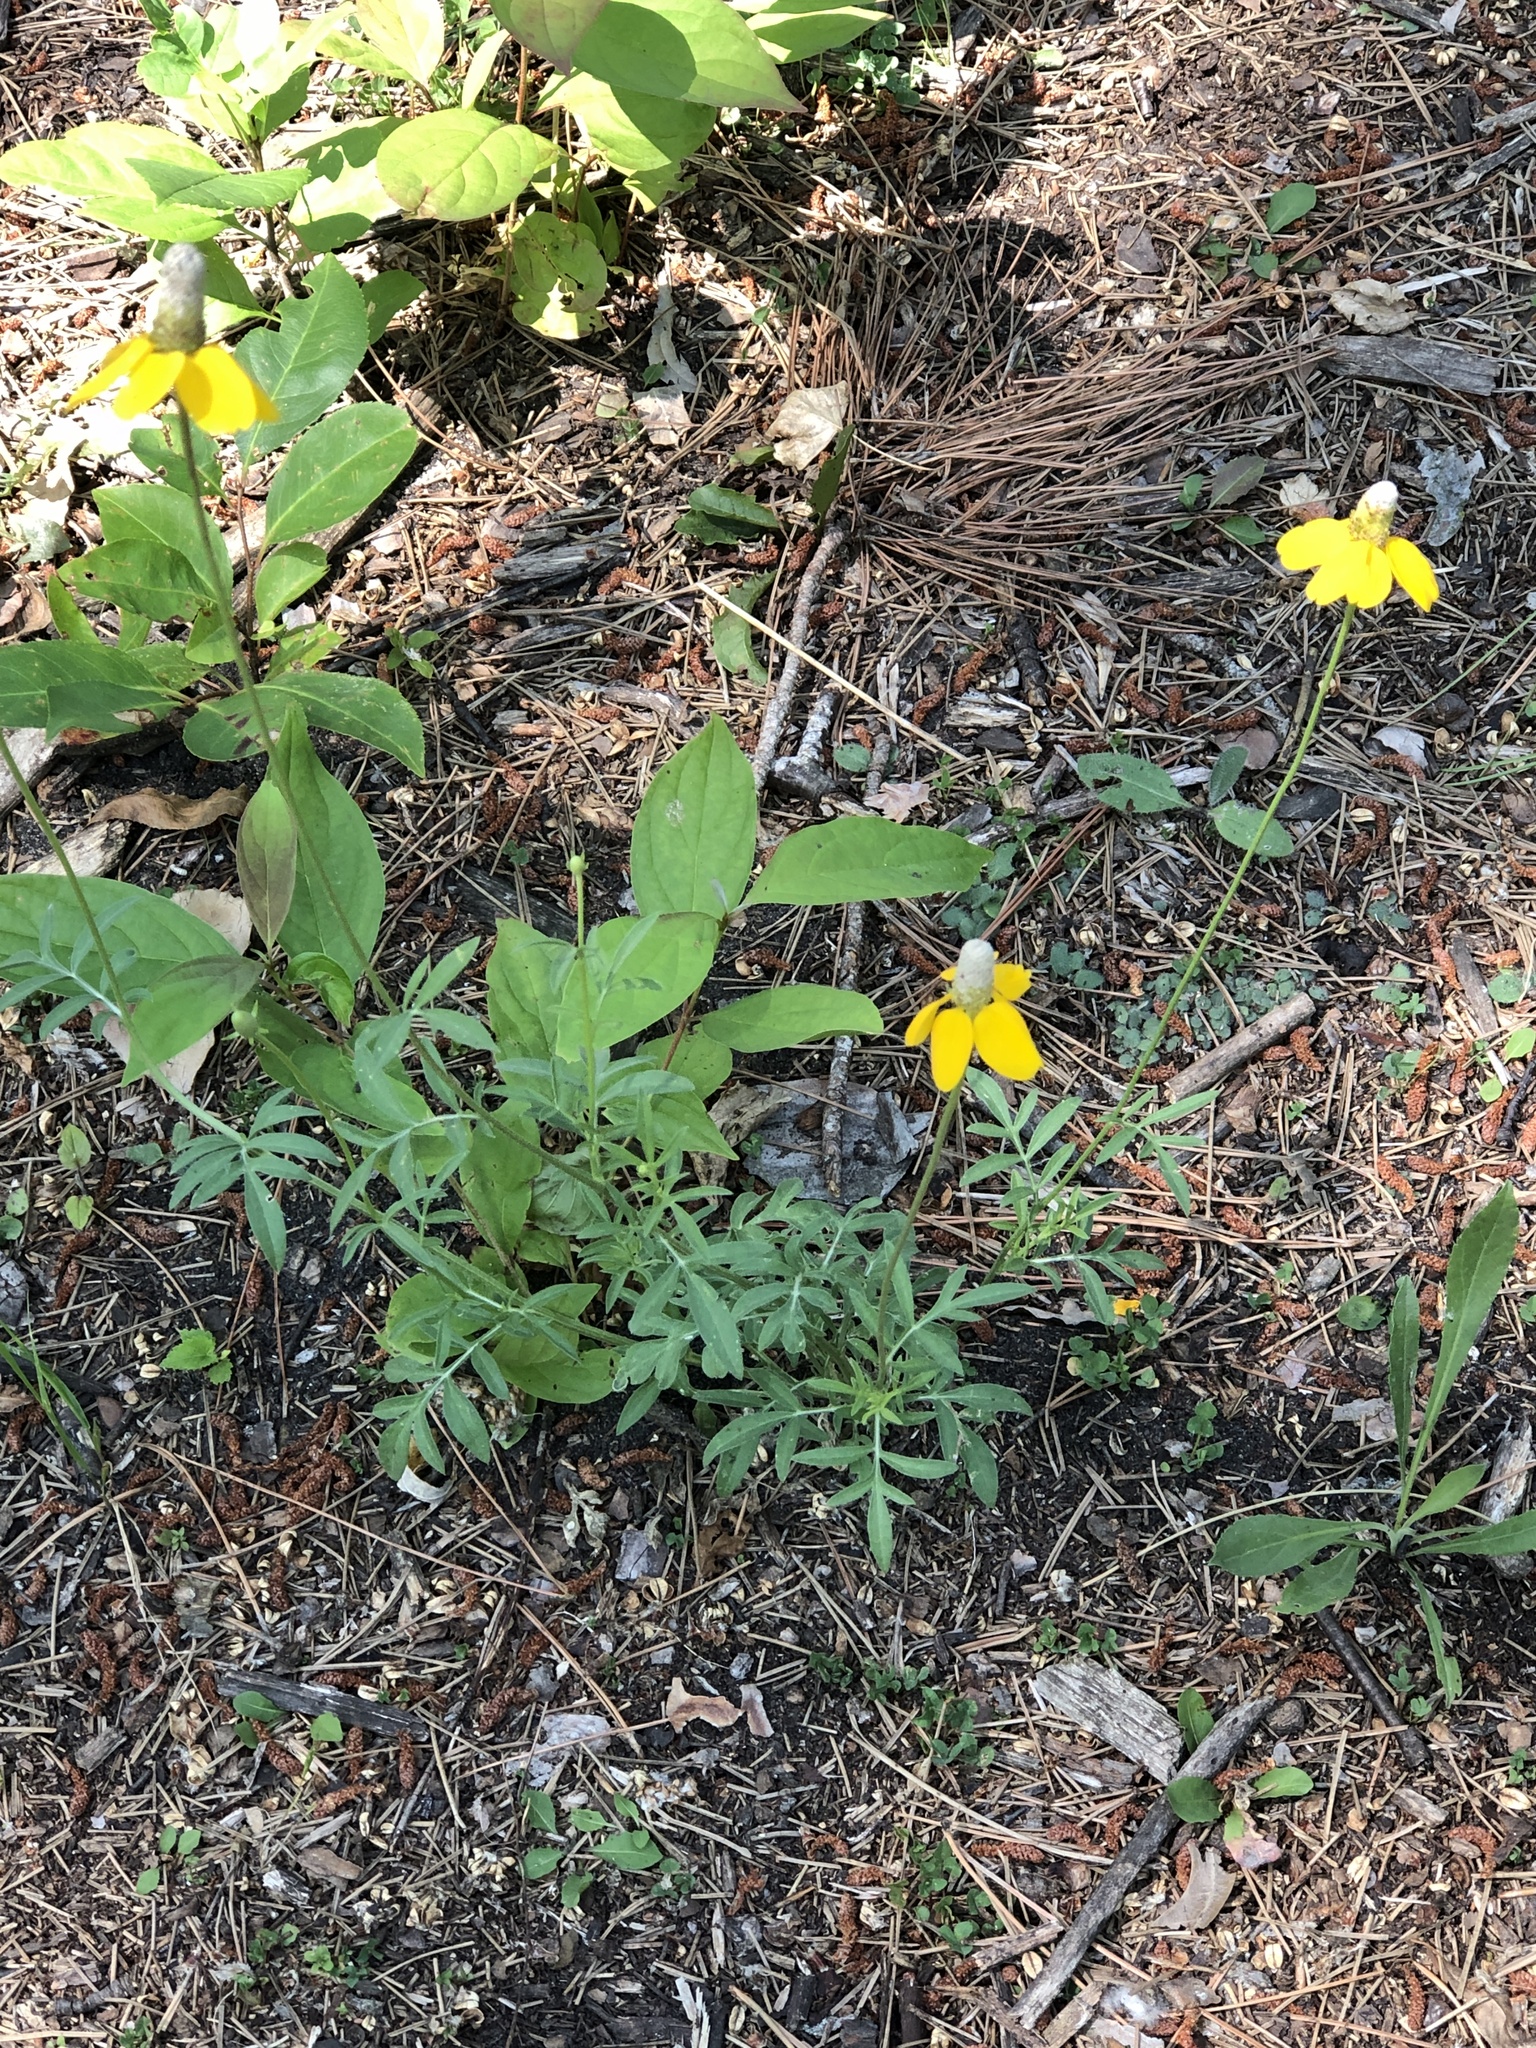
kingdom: Plantae
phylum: Tracheophyta
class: Magnoliopsida
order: Asterales
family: Asteraceae
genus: Ratibida
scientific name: Ratibida columnifera
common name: Prairie coneflower
